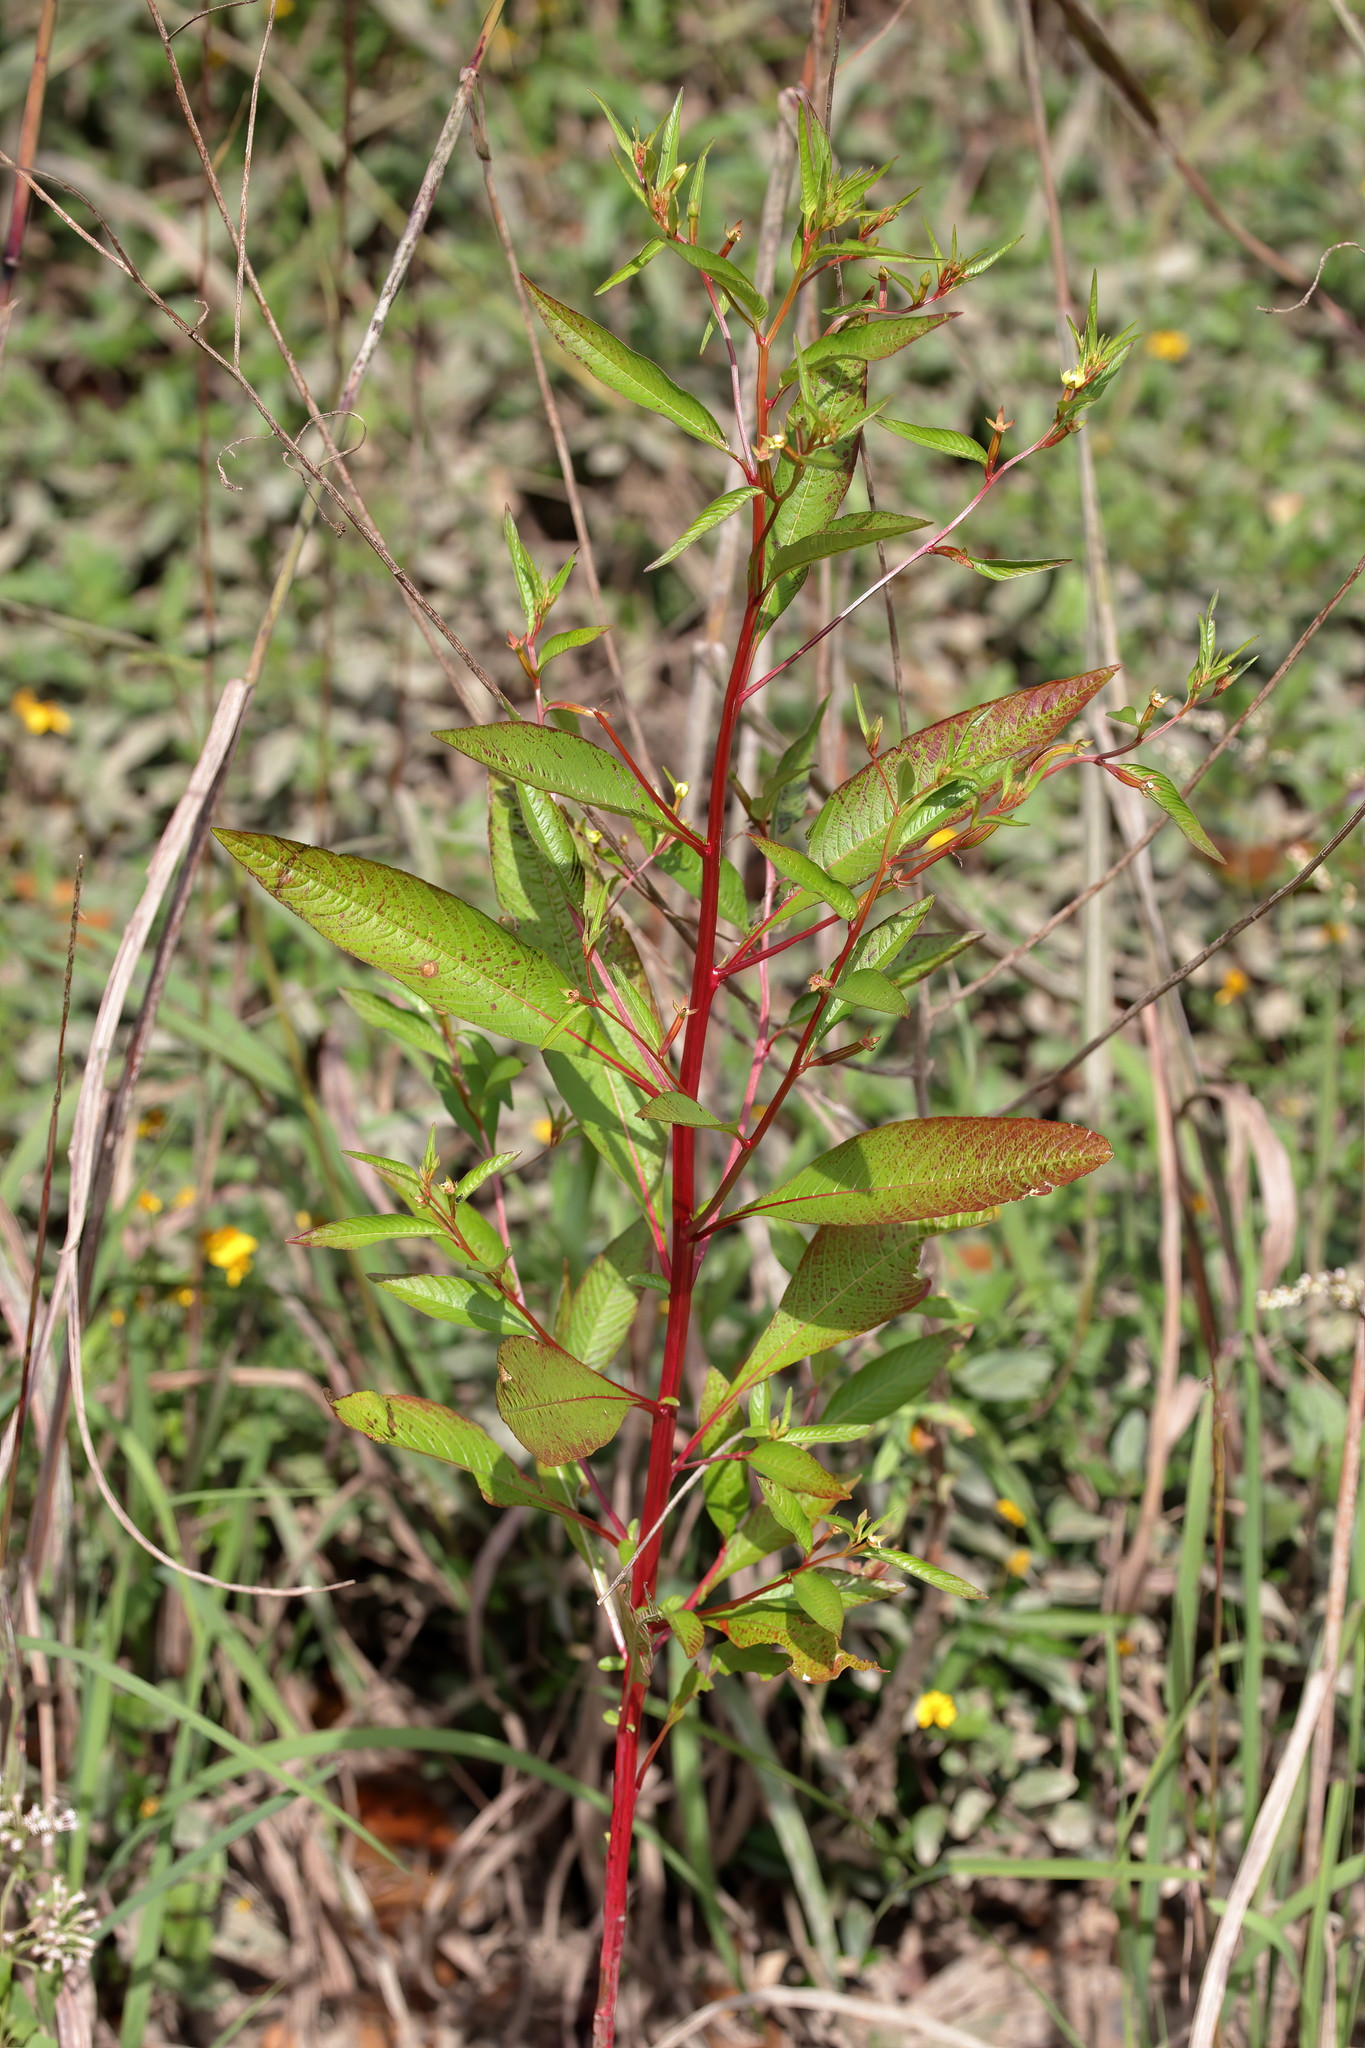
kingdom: Plantae
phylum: Tracheophyta
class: Magnoliopsida
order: Myrtales
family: Onagraceae
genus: Ludwigia
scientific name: Ludwigia decurrens
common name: Winged water-primrose
